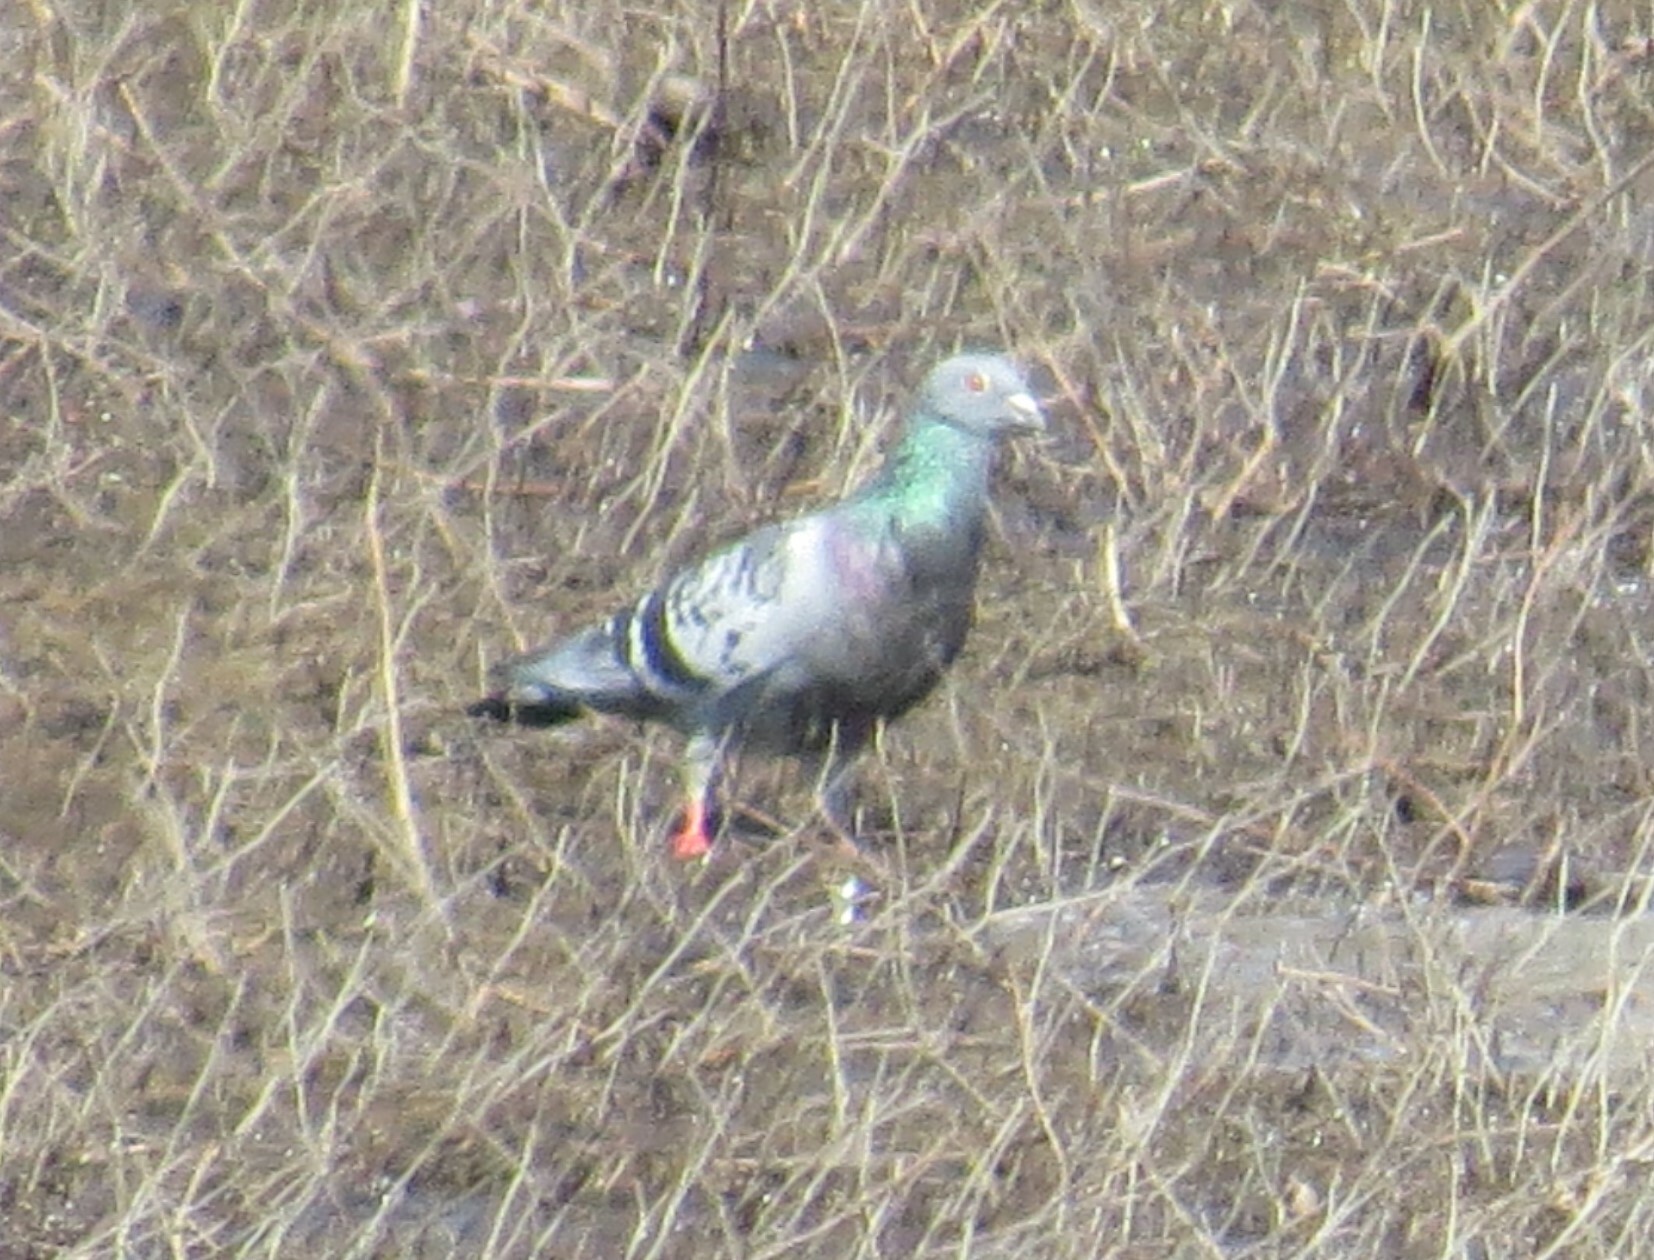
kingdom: Animalia
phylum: Chordata
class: Aves
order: Columbiformes
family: Columbidae
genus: Columba
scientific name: Columba livia
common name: Rock pigeon
